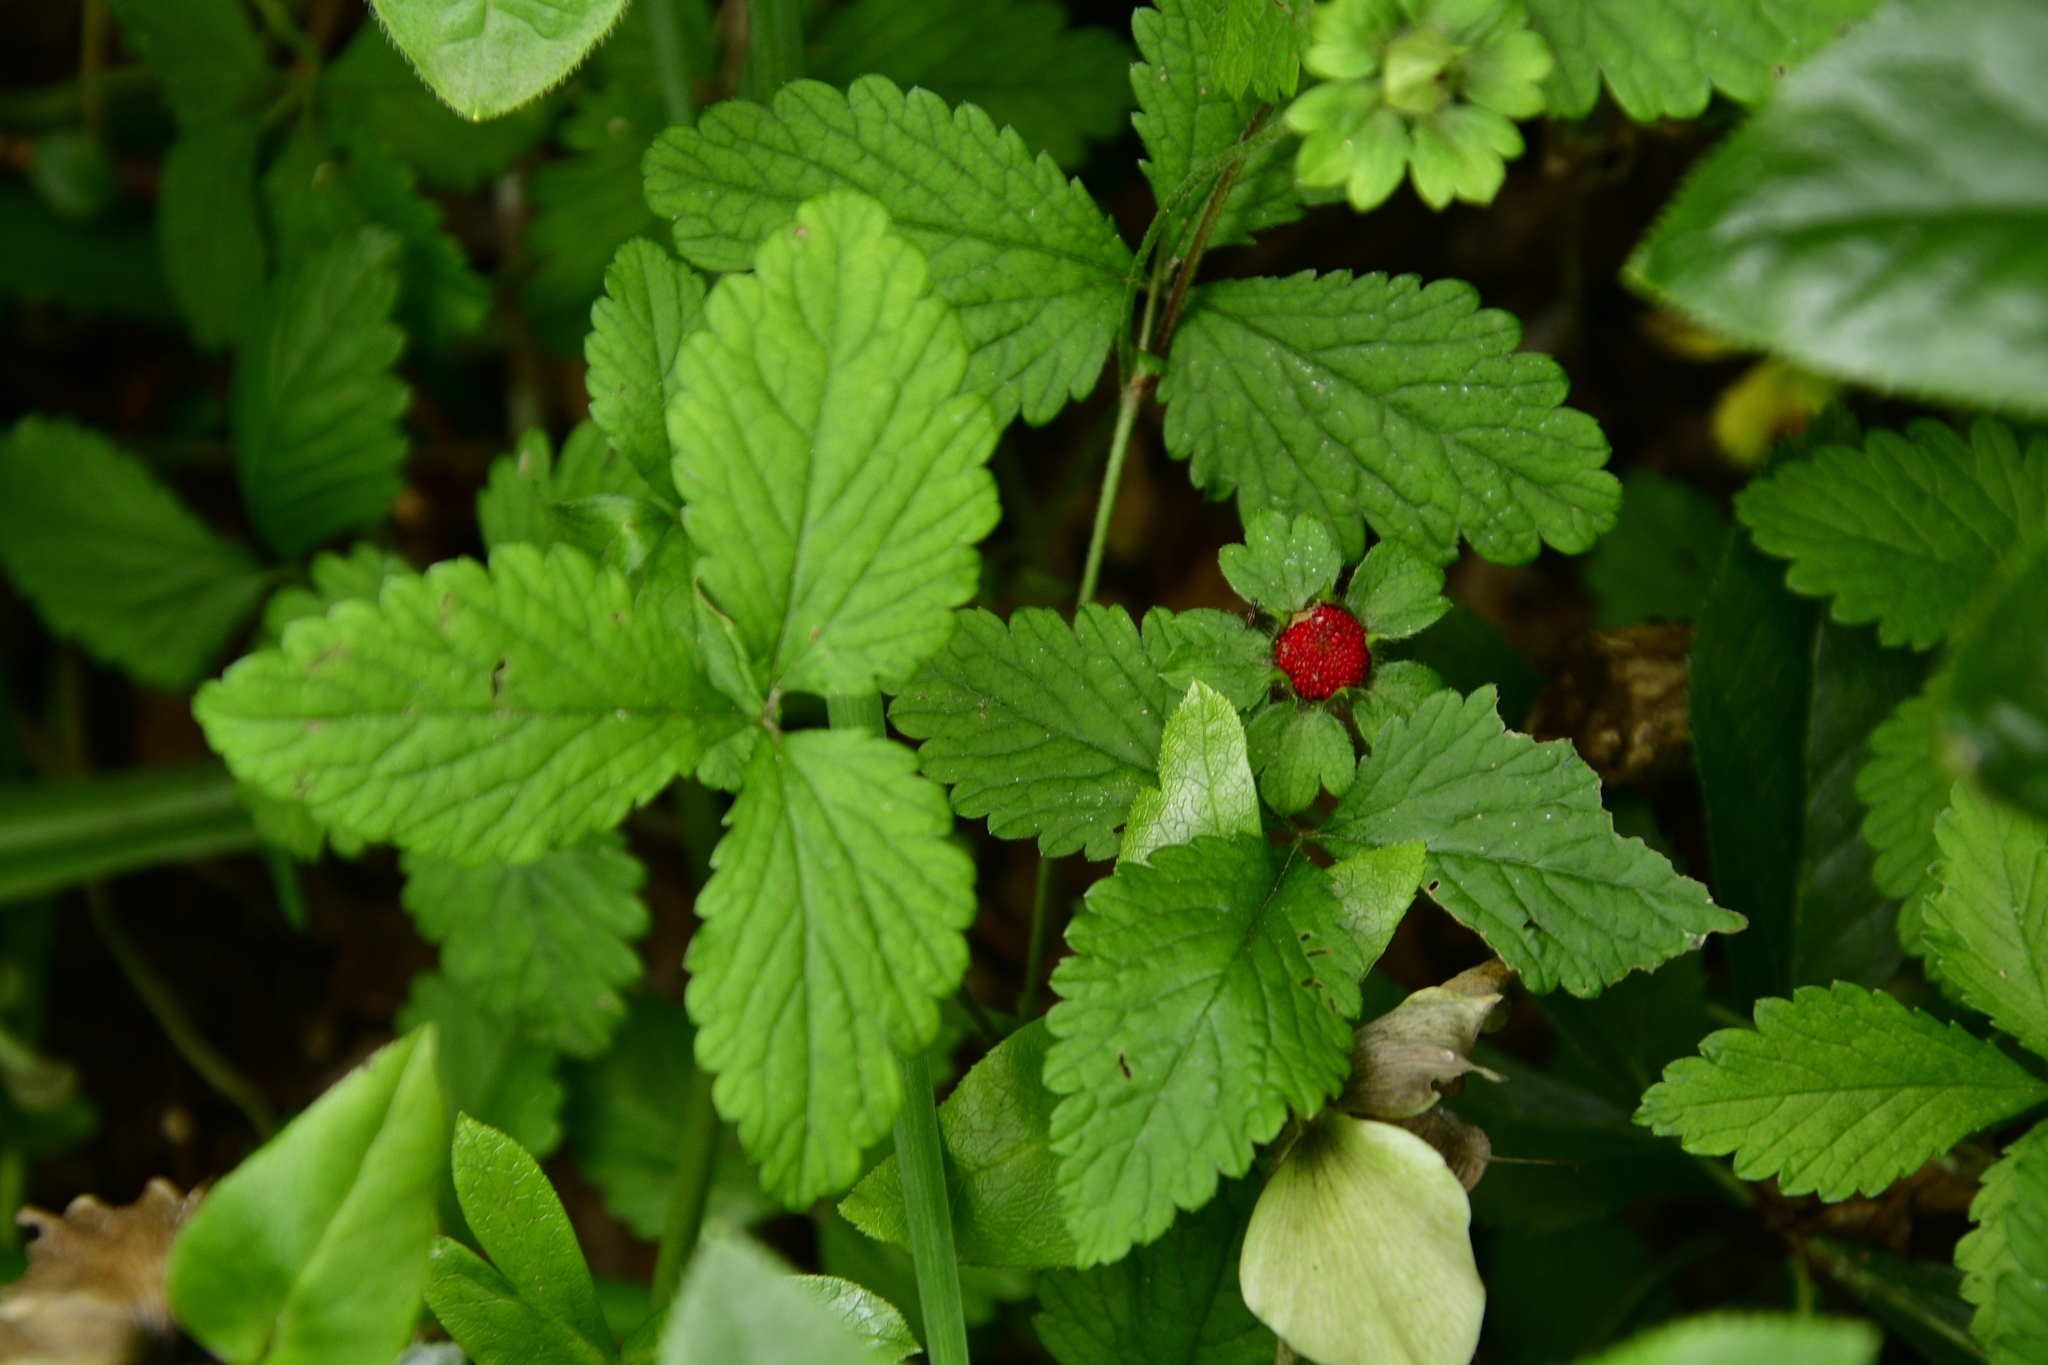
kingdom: Plantae
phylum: Tracheophyta
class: Magnoliopsida
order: Rosales
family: Rosaceae
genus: Potentilla
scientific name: Potentilla indica
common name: Yellow-flowered strawberry
